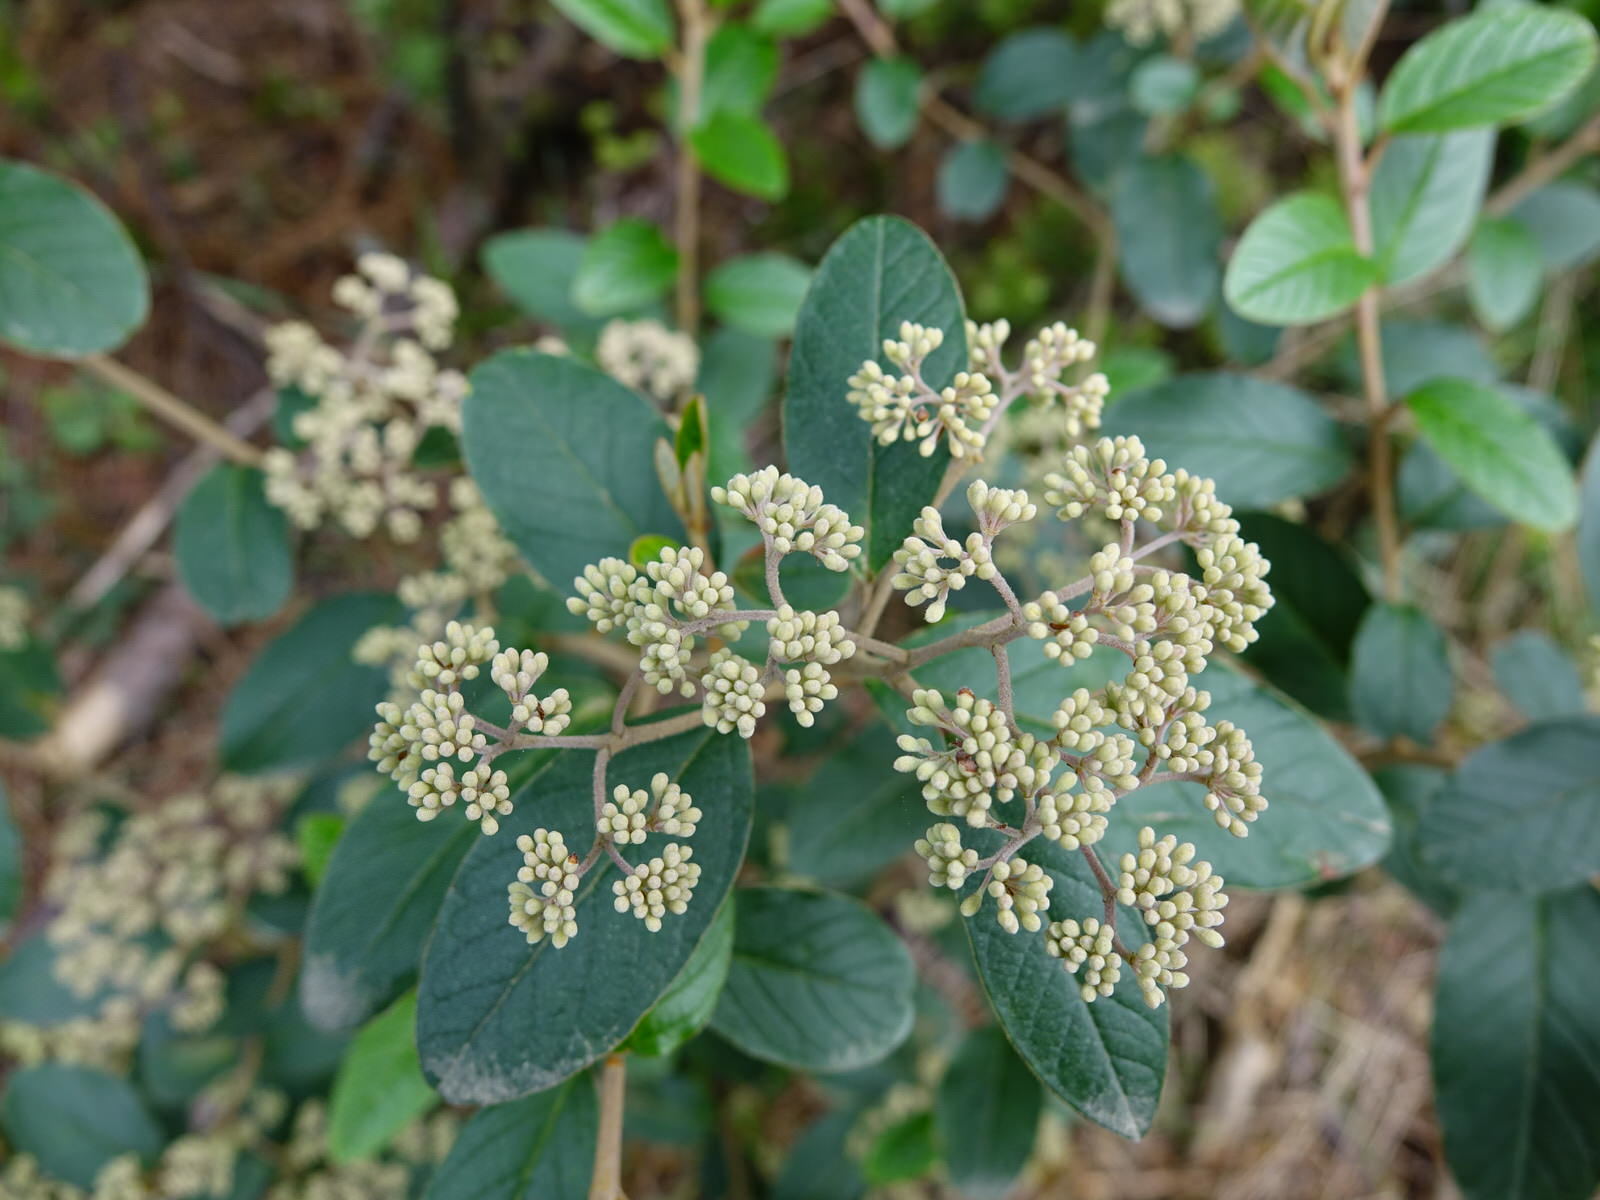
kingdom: Plantae
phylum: Tracheophyta
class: Magnoliopsida
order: Rosales
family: Rhamnaceae
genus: Pomaderris
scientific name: Pomaderris kumeraho
